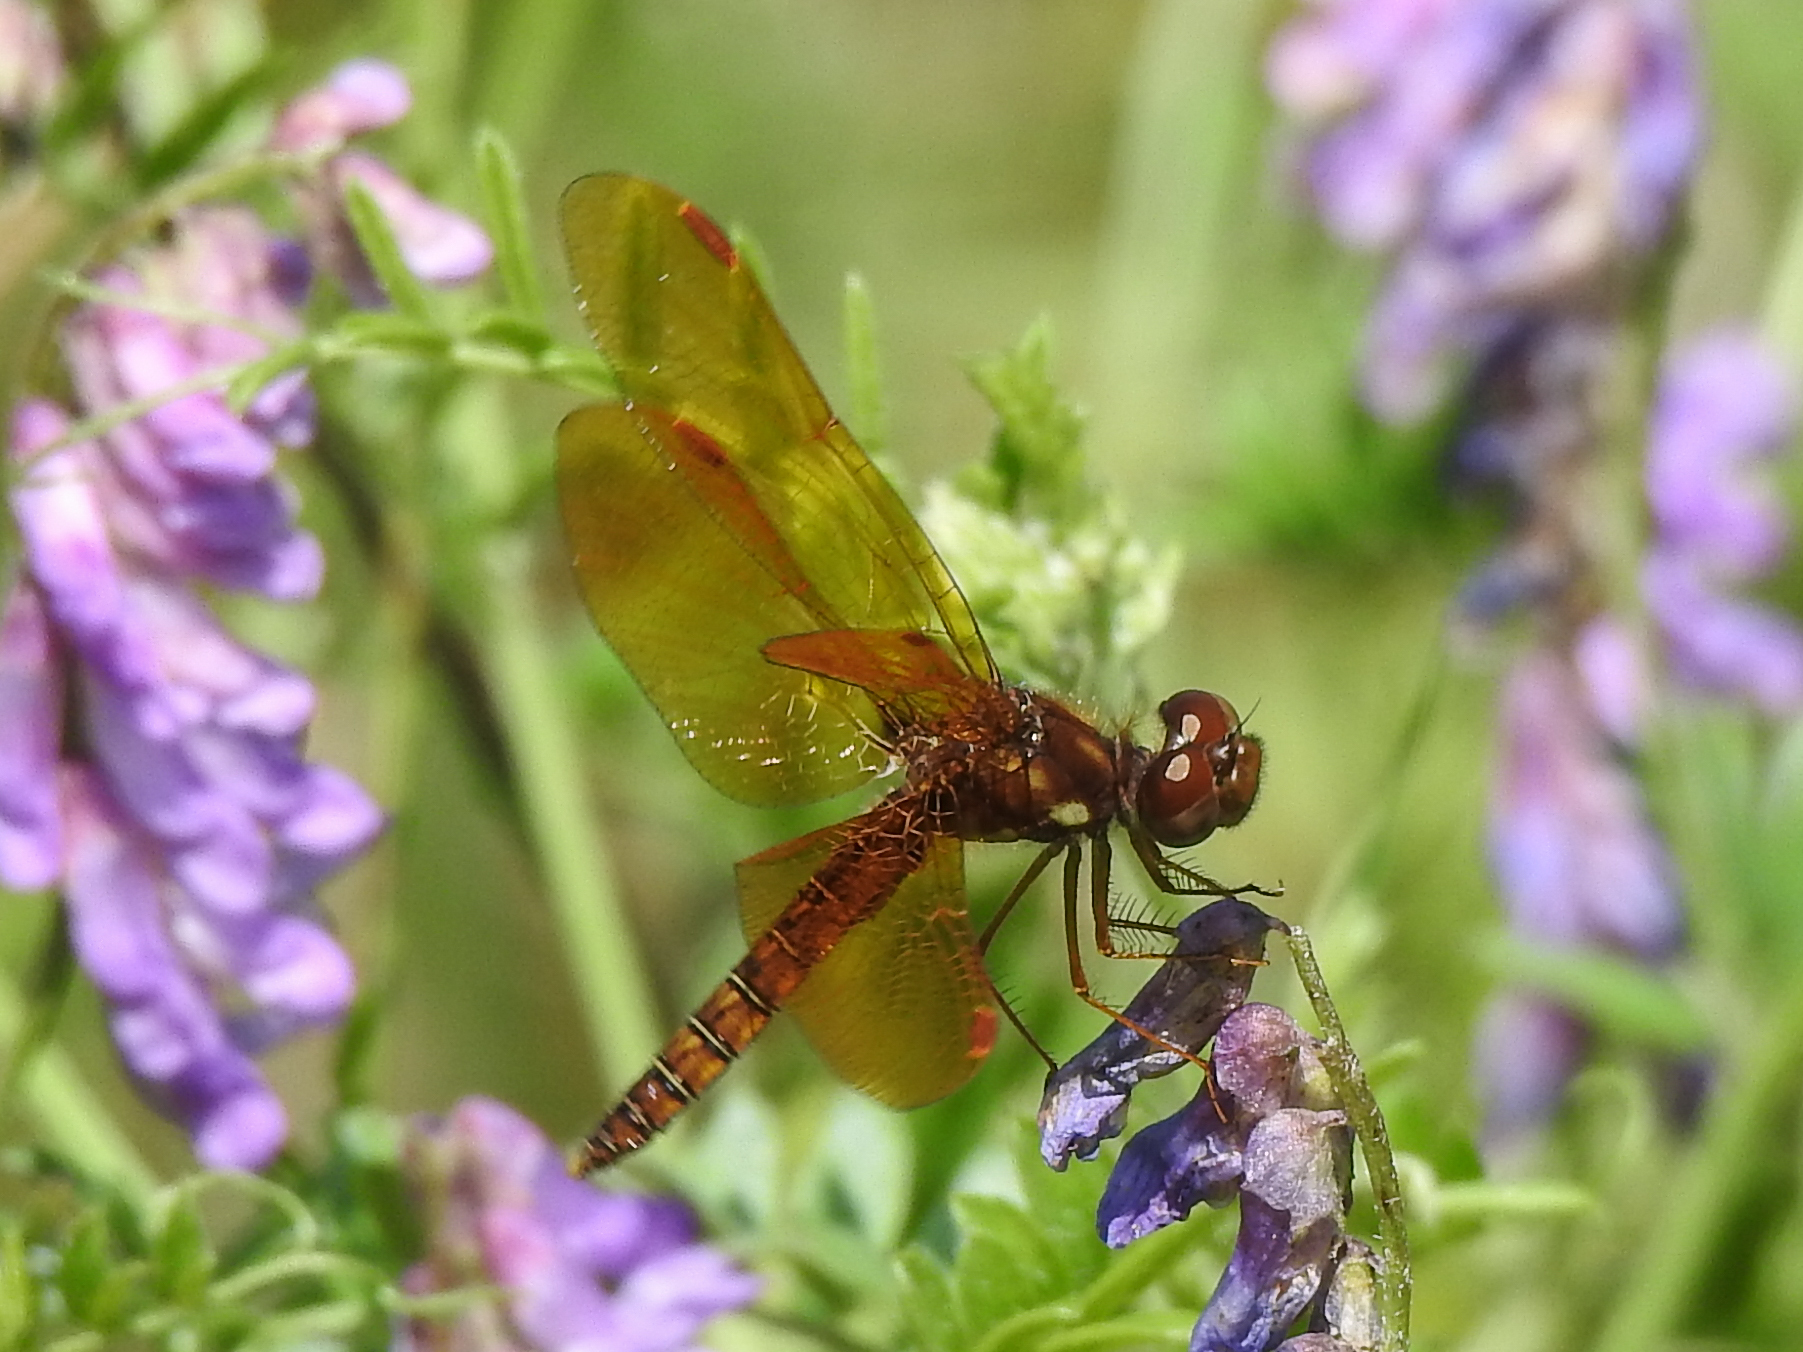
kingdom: Animalia
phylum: Arthropoda
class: Insecta
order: Odonata
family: Libellulidae
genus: Perithemis
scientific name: Perithemis tenera
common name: Eastern amberwing
